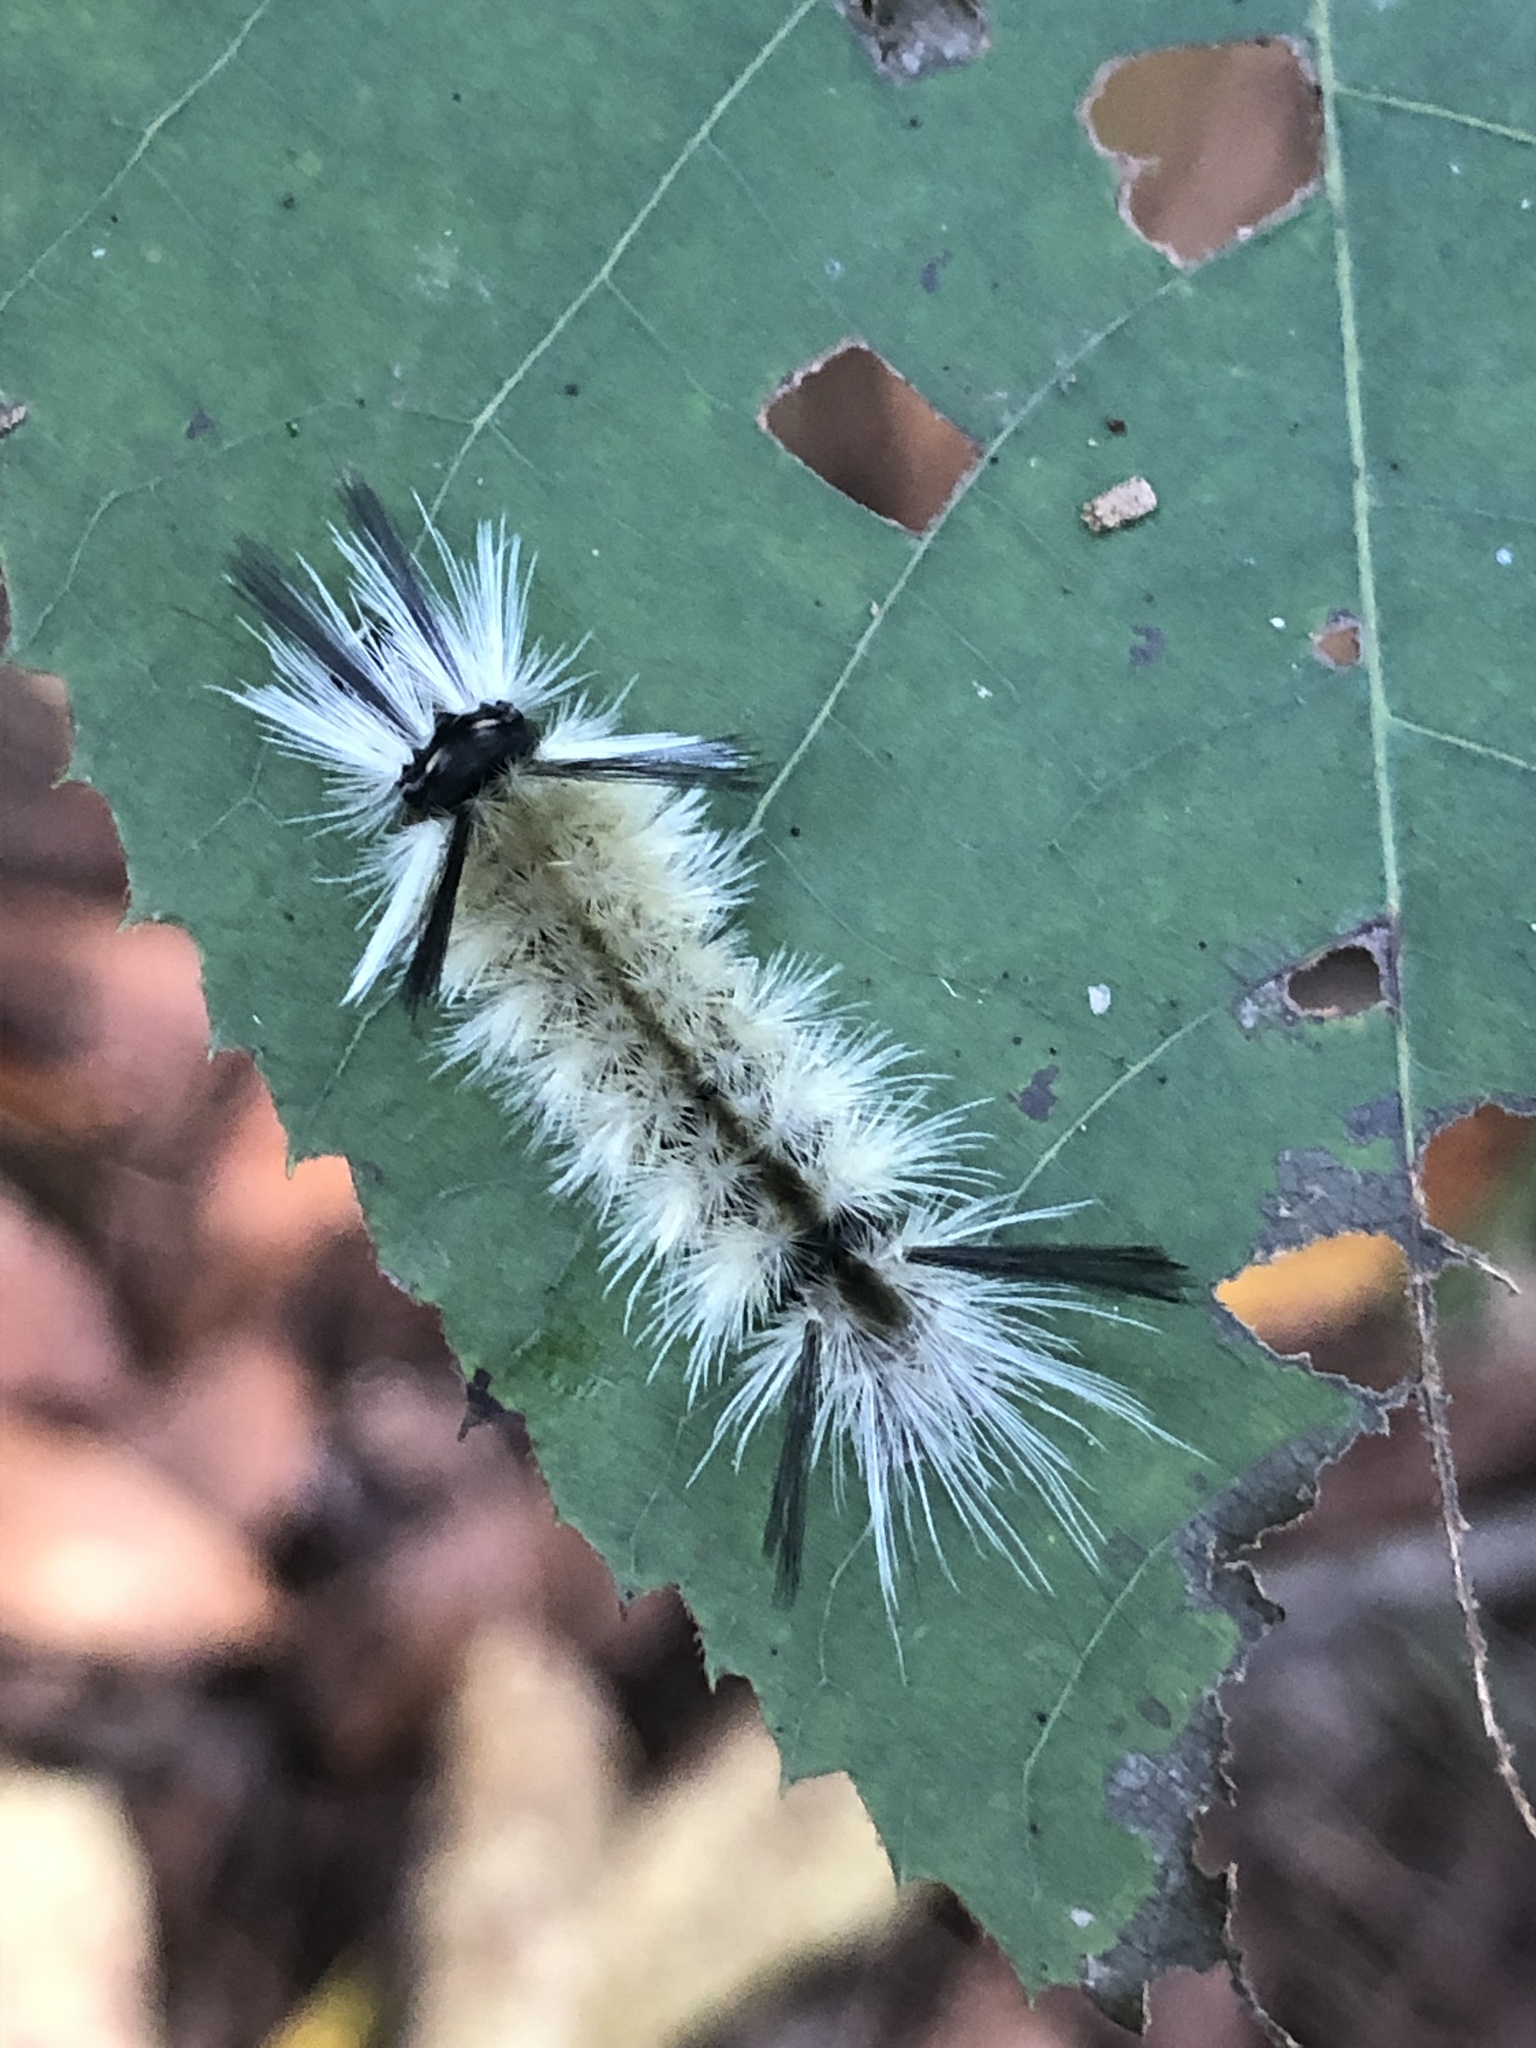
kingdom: Animalia
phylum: Arthropoda
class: Insecta
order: Lepidoptera
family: Erebidae
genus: Halysidota
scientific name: Halysidota tessellaris
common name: Banded tussock moth
